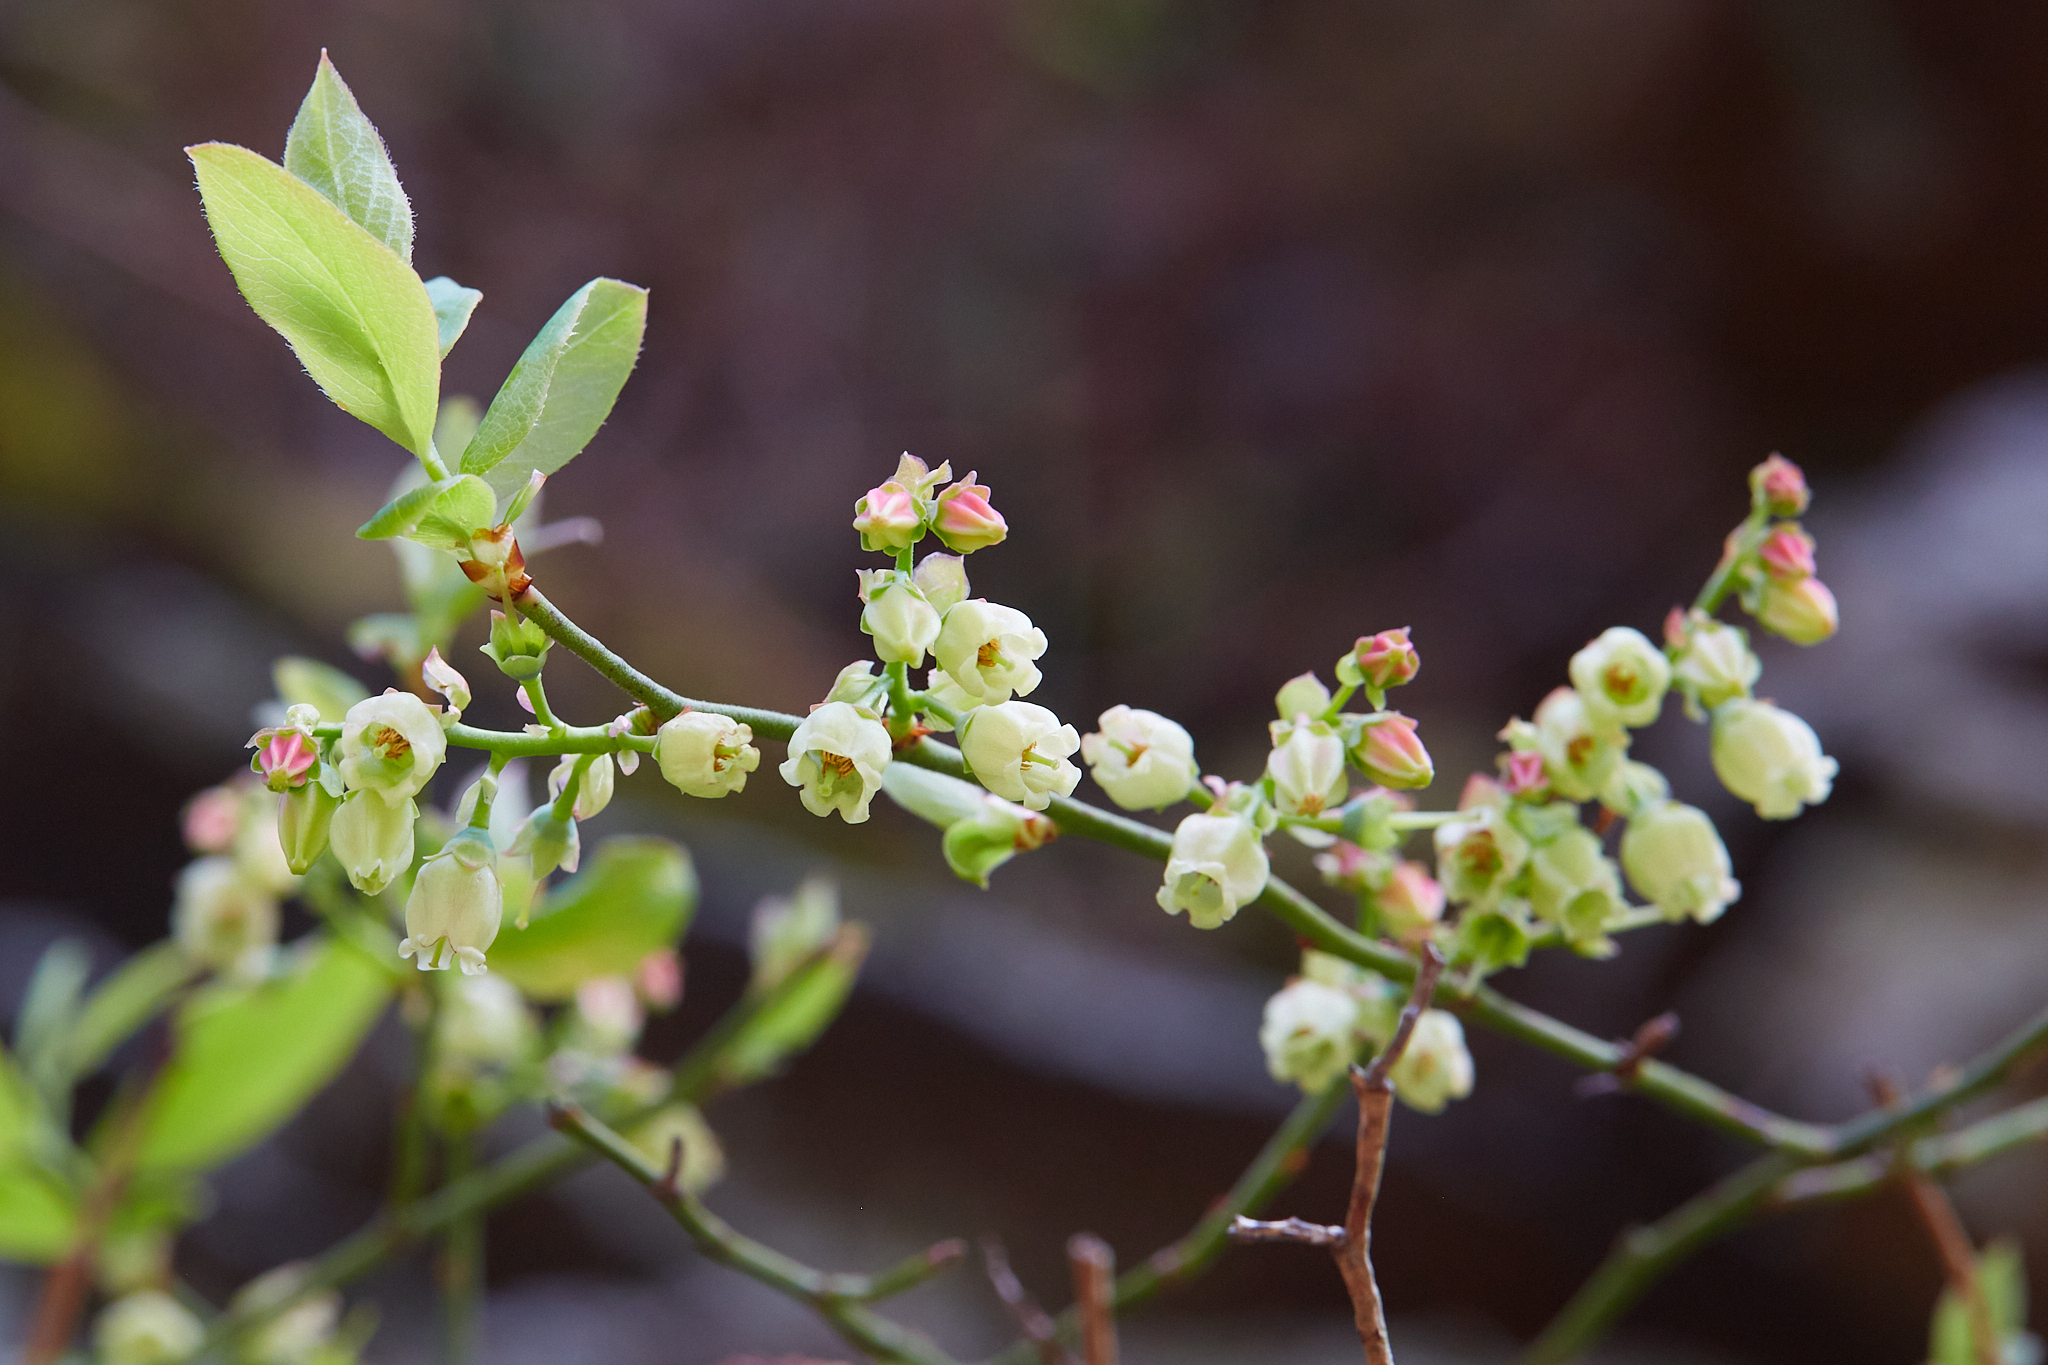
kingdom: Plantae
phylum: Tracheophyta
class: Magnoliopsida
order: Ericales
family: Ericaceae
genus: Vaccinium
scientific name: Vaccinium pallidum
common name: Blue ridge blueberry
